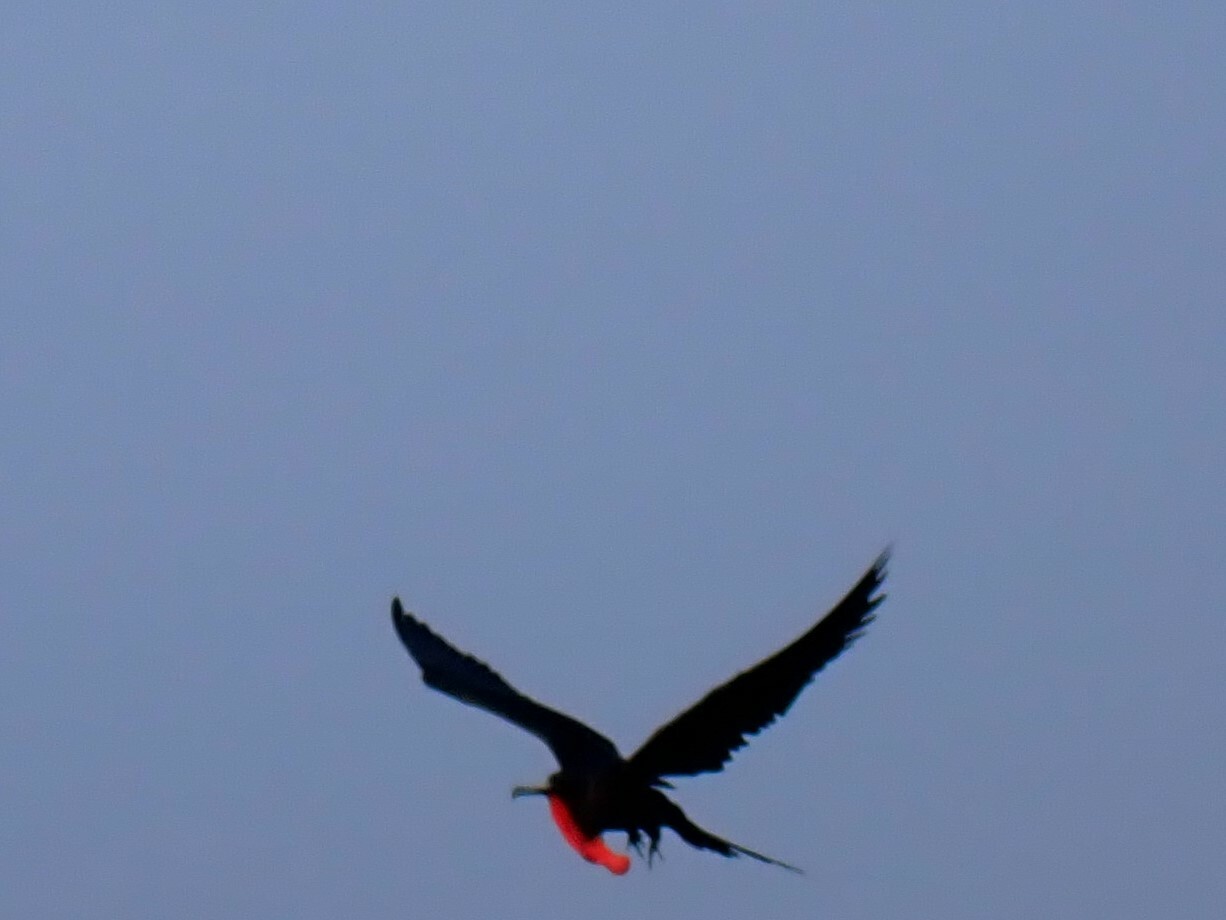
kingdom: Animalia
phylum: Chordata
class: Aves
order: Suliformes
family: Fregatidae
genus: Fregata
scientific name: Fregata magnificens
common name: Magnificent frigatebird
